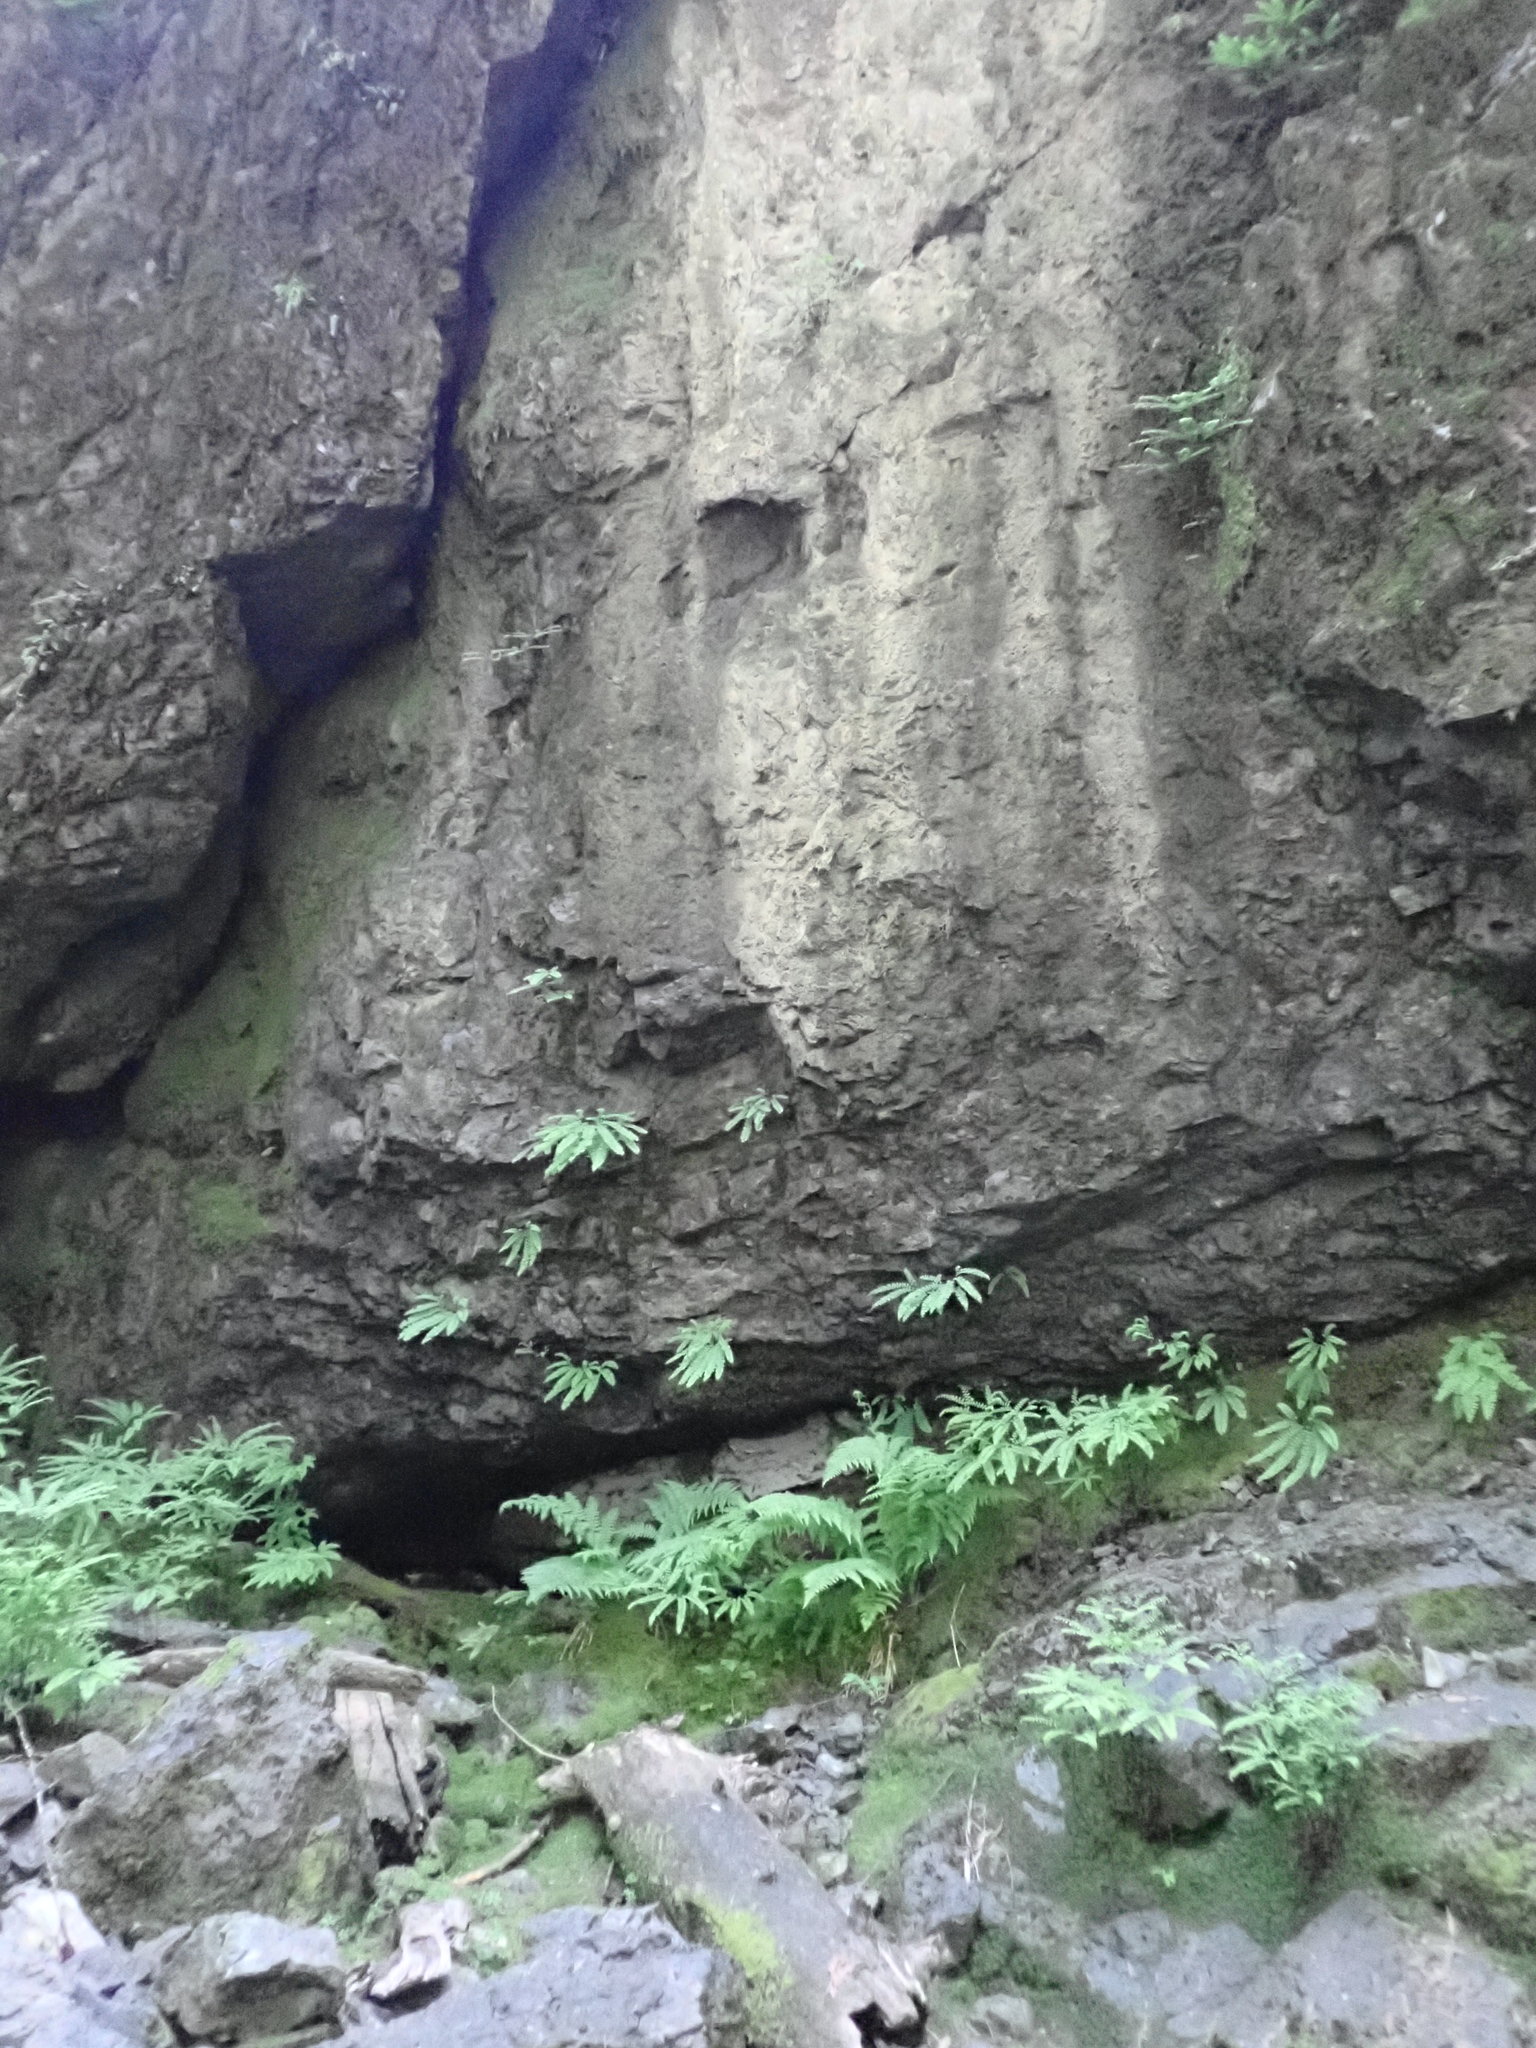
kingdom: Plantae
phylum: Tracheophyta
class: Polypodiopsida
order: Polypodiales
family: Pteridaceae
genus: Adiantum
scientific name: Adiantum aleuticum
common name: Aleutian maidenhair fern
